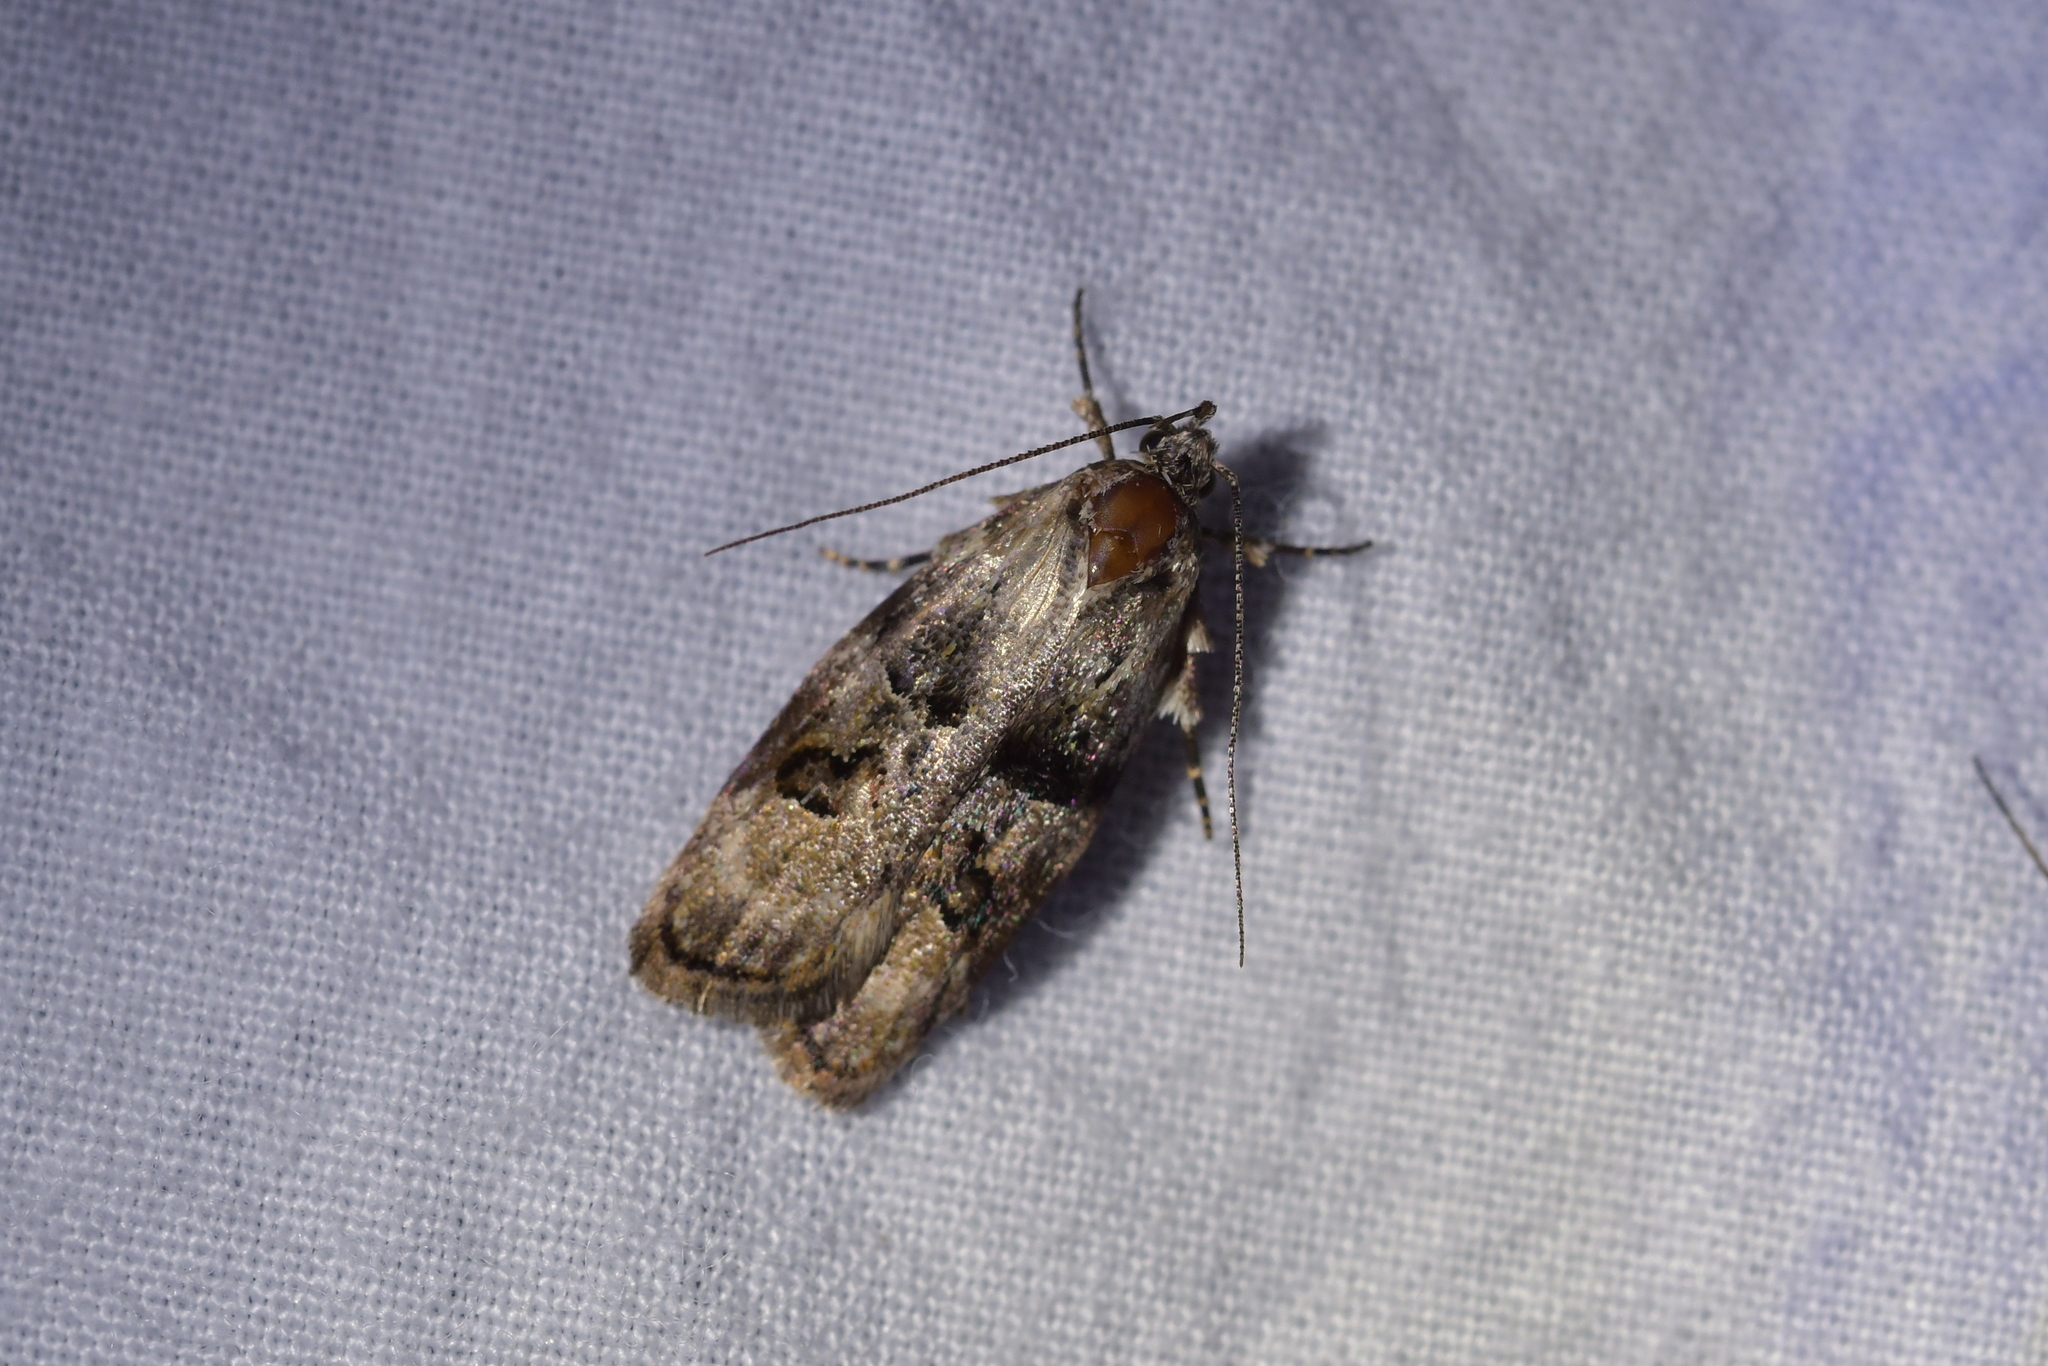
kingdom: Animalia
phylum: Arthropoda
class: Insecta
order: Lepidoptera
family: Oecophoridae
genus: Izatha
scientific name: Izatha metadelta
